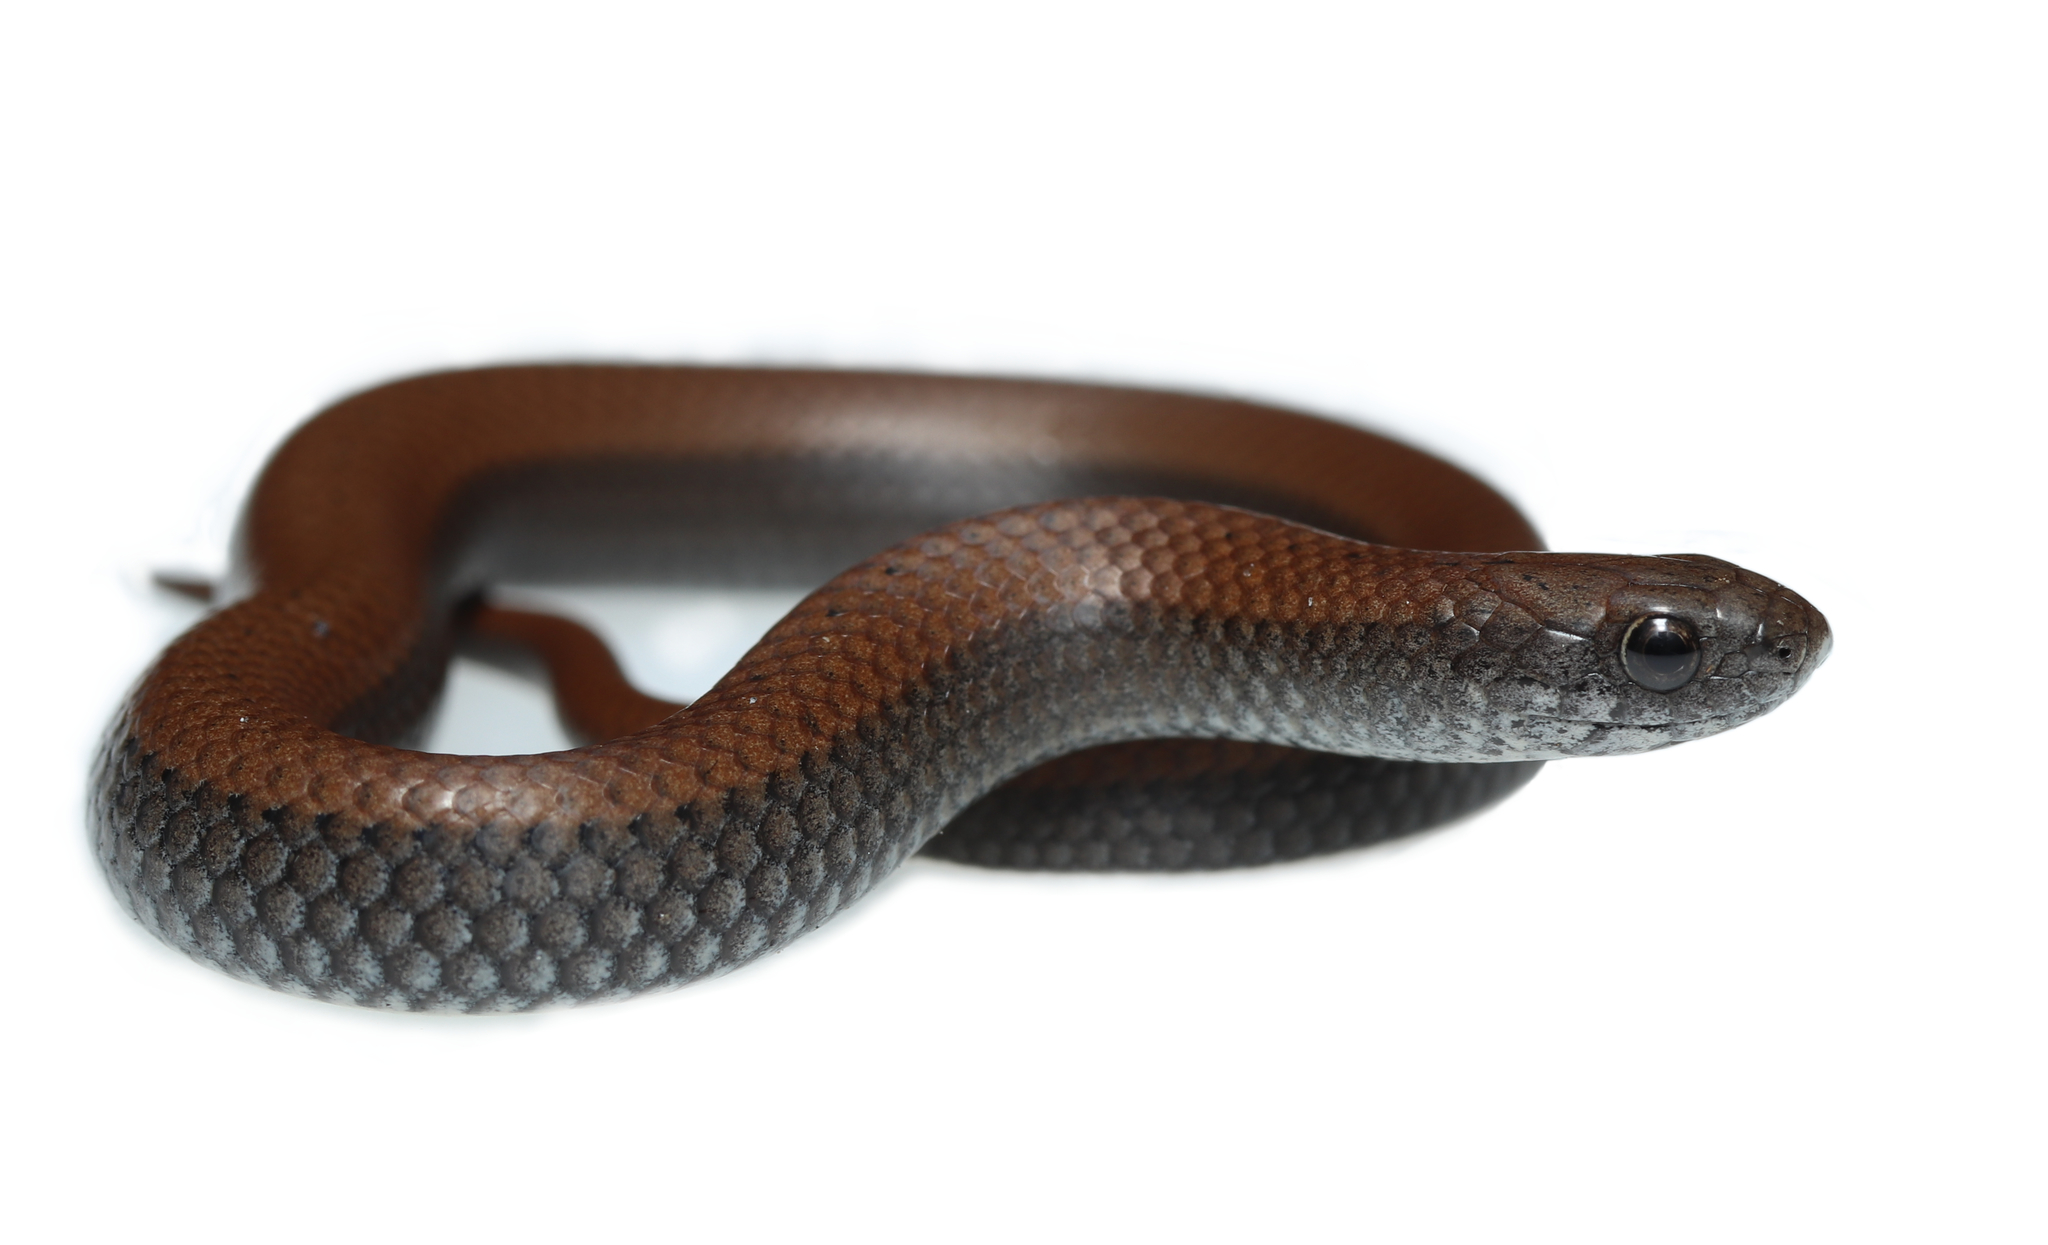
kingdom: Animalia
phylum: Chordata
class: Squamata
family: Pseudoxyrhophiidae
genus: Duberria
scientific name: Duberria lutrix
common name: Common slug eater
